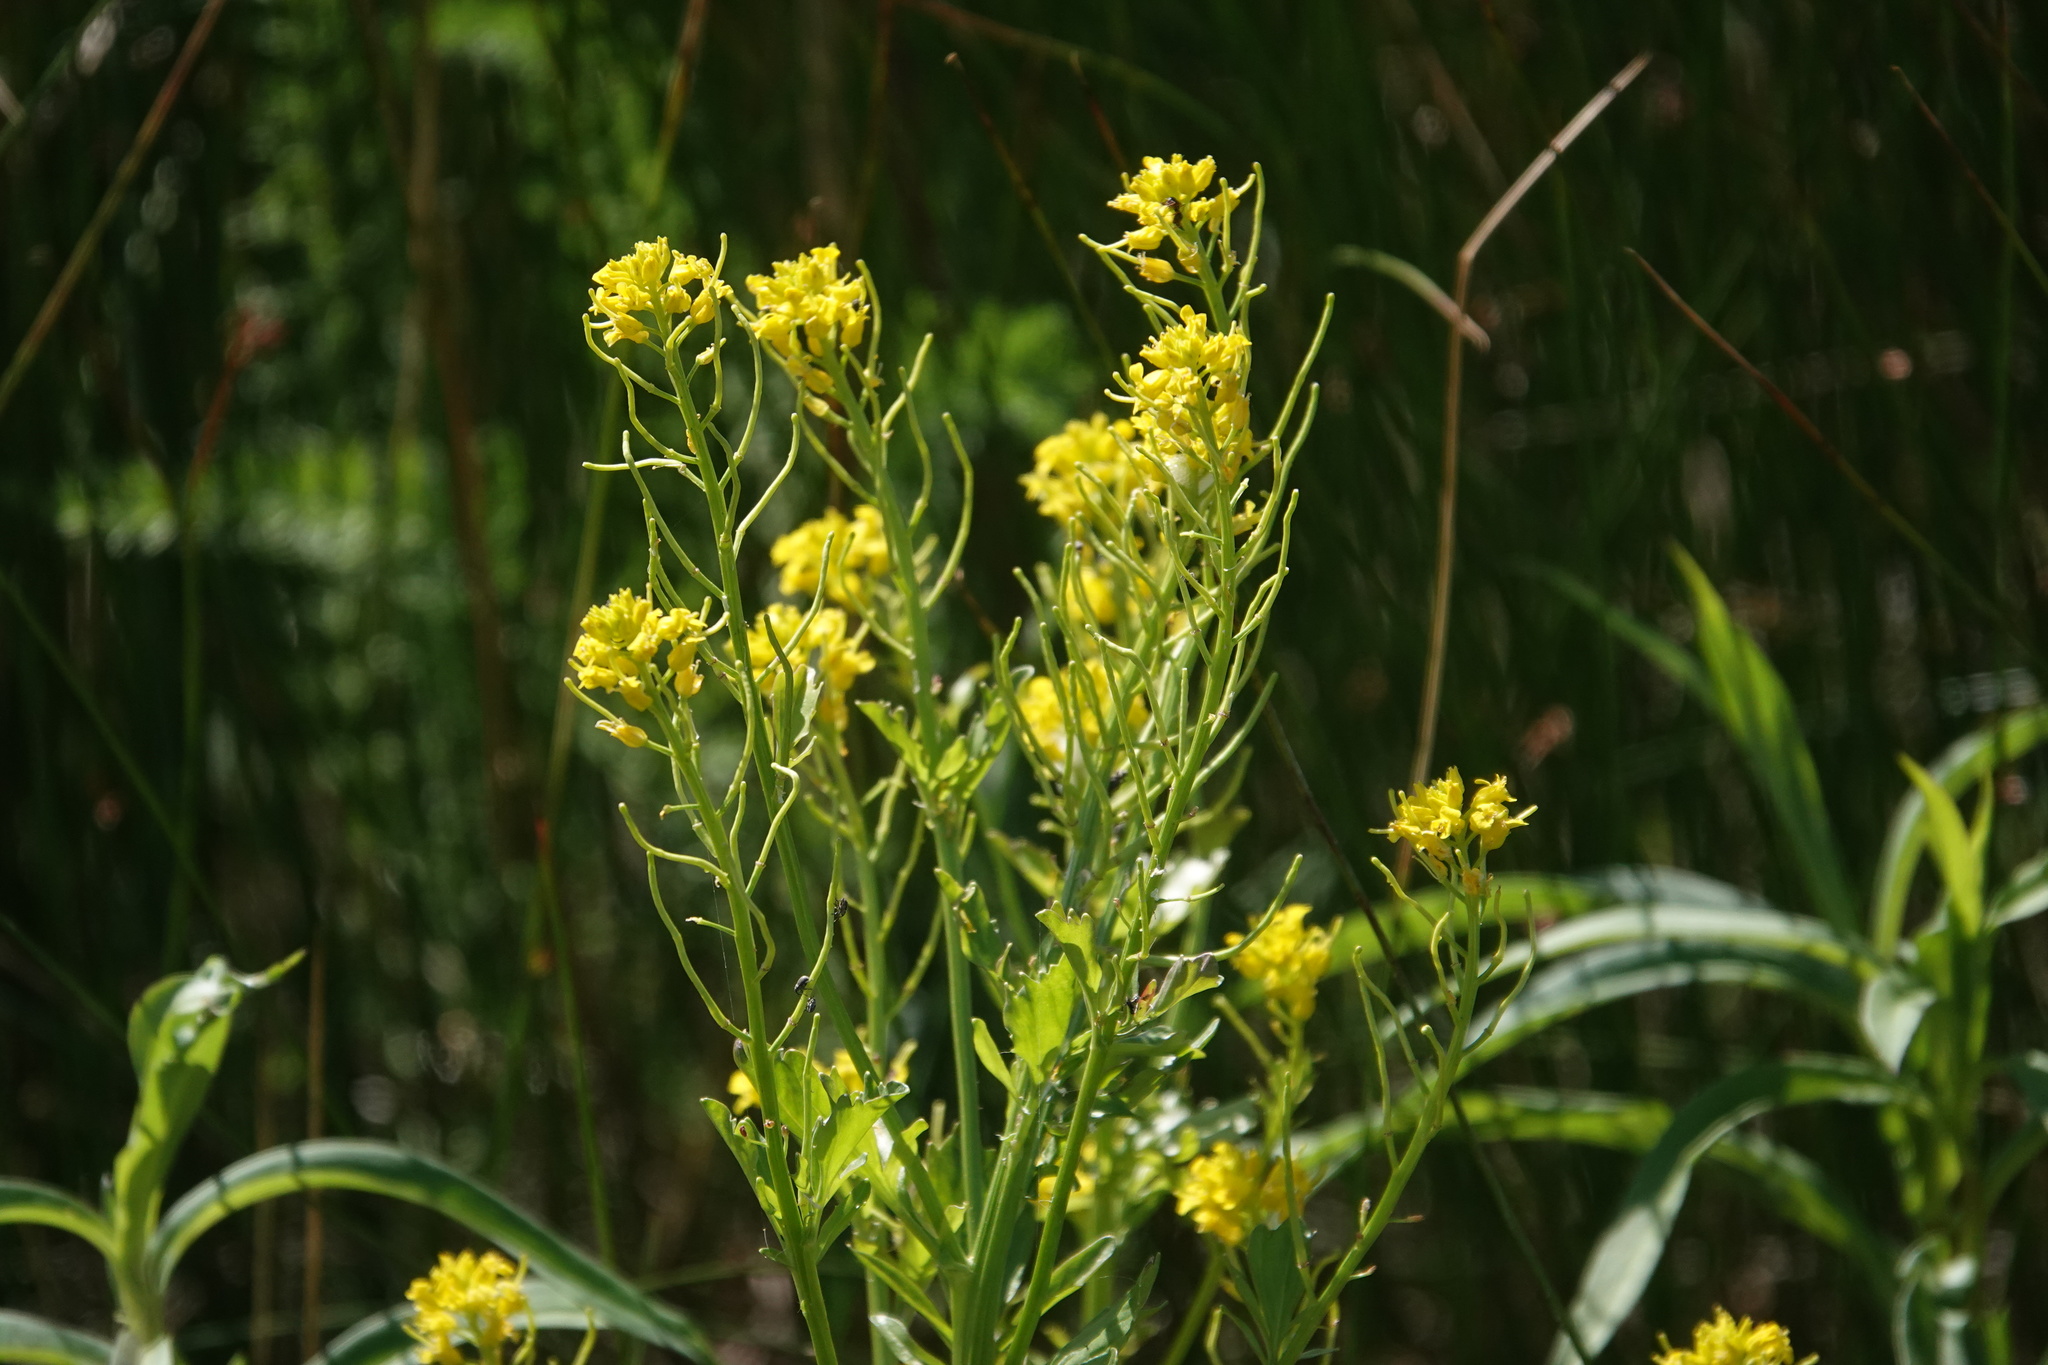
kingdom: Plantae
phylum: Tracheophyta
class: Magnoliopsida
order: Brassicales
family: Brassicaceae
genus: Barbarea
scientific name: Barbarea orthoceras
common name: American wintercress
